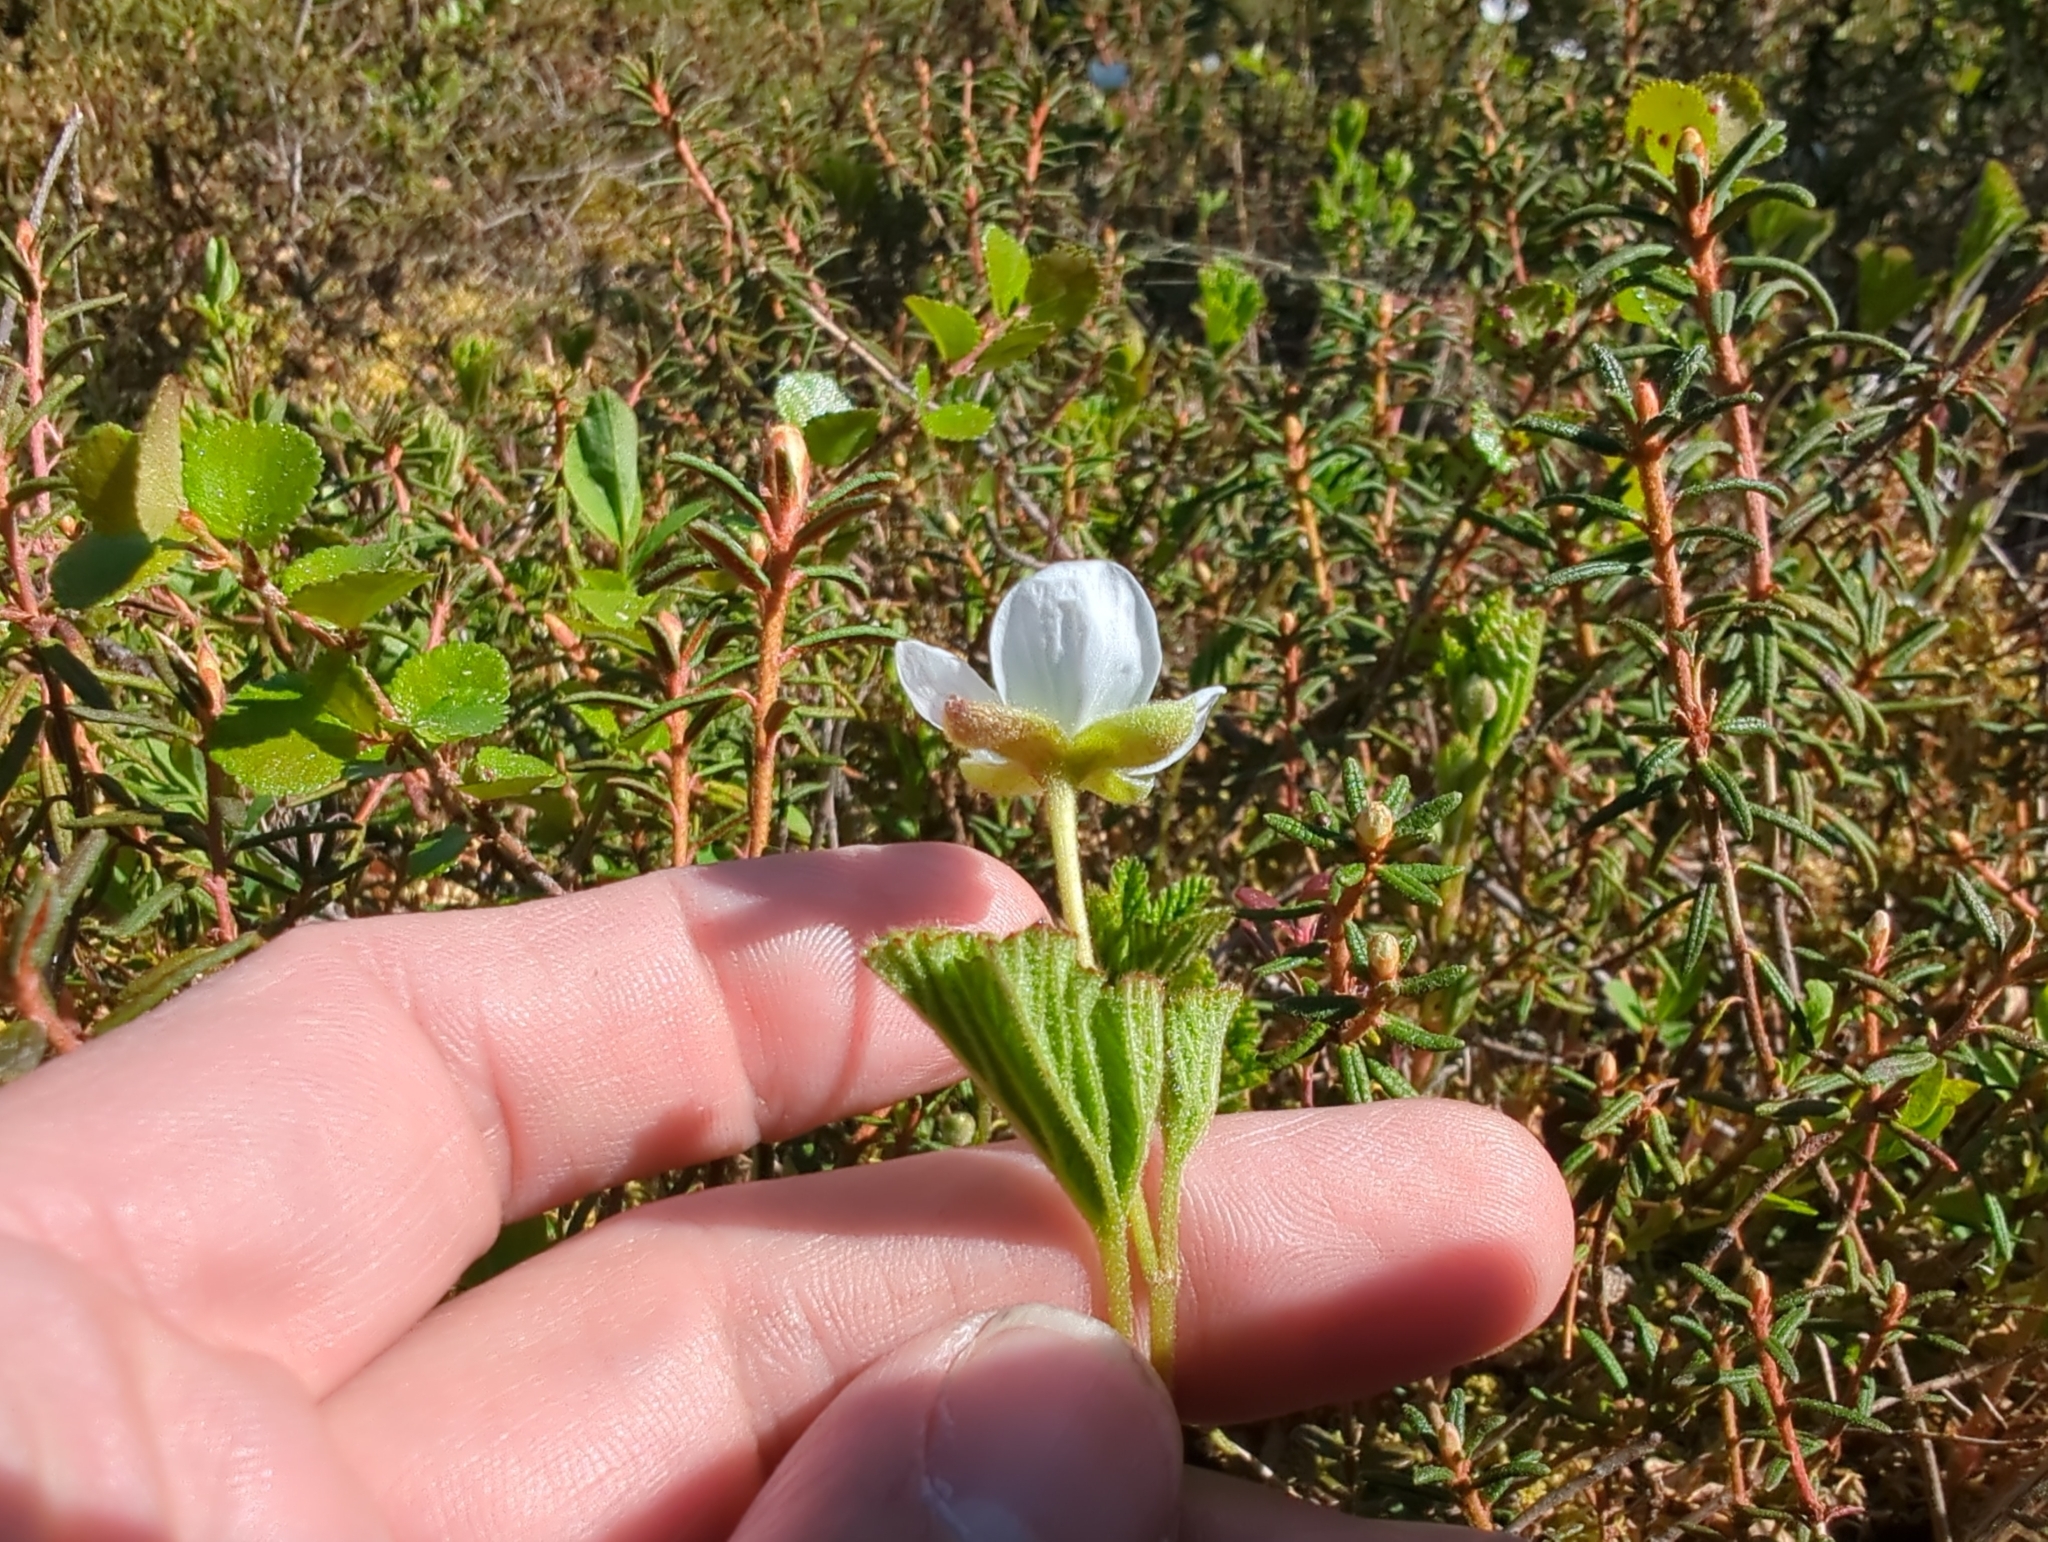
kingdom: Plantae
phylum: Tracheophyta
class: Magnoliopsida
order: Rosales
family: Rosaceae
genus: Rubus
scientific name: Rubus chamaemorus
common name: Cloudberry
